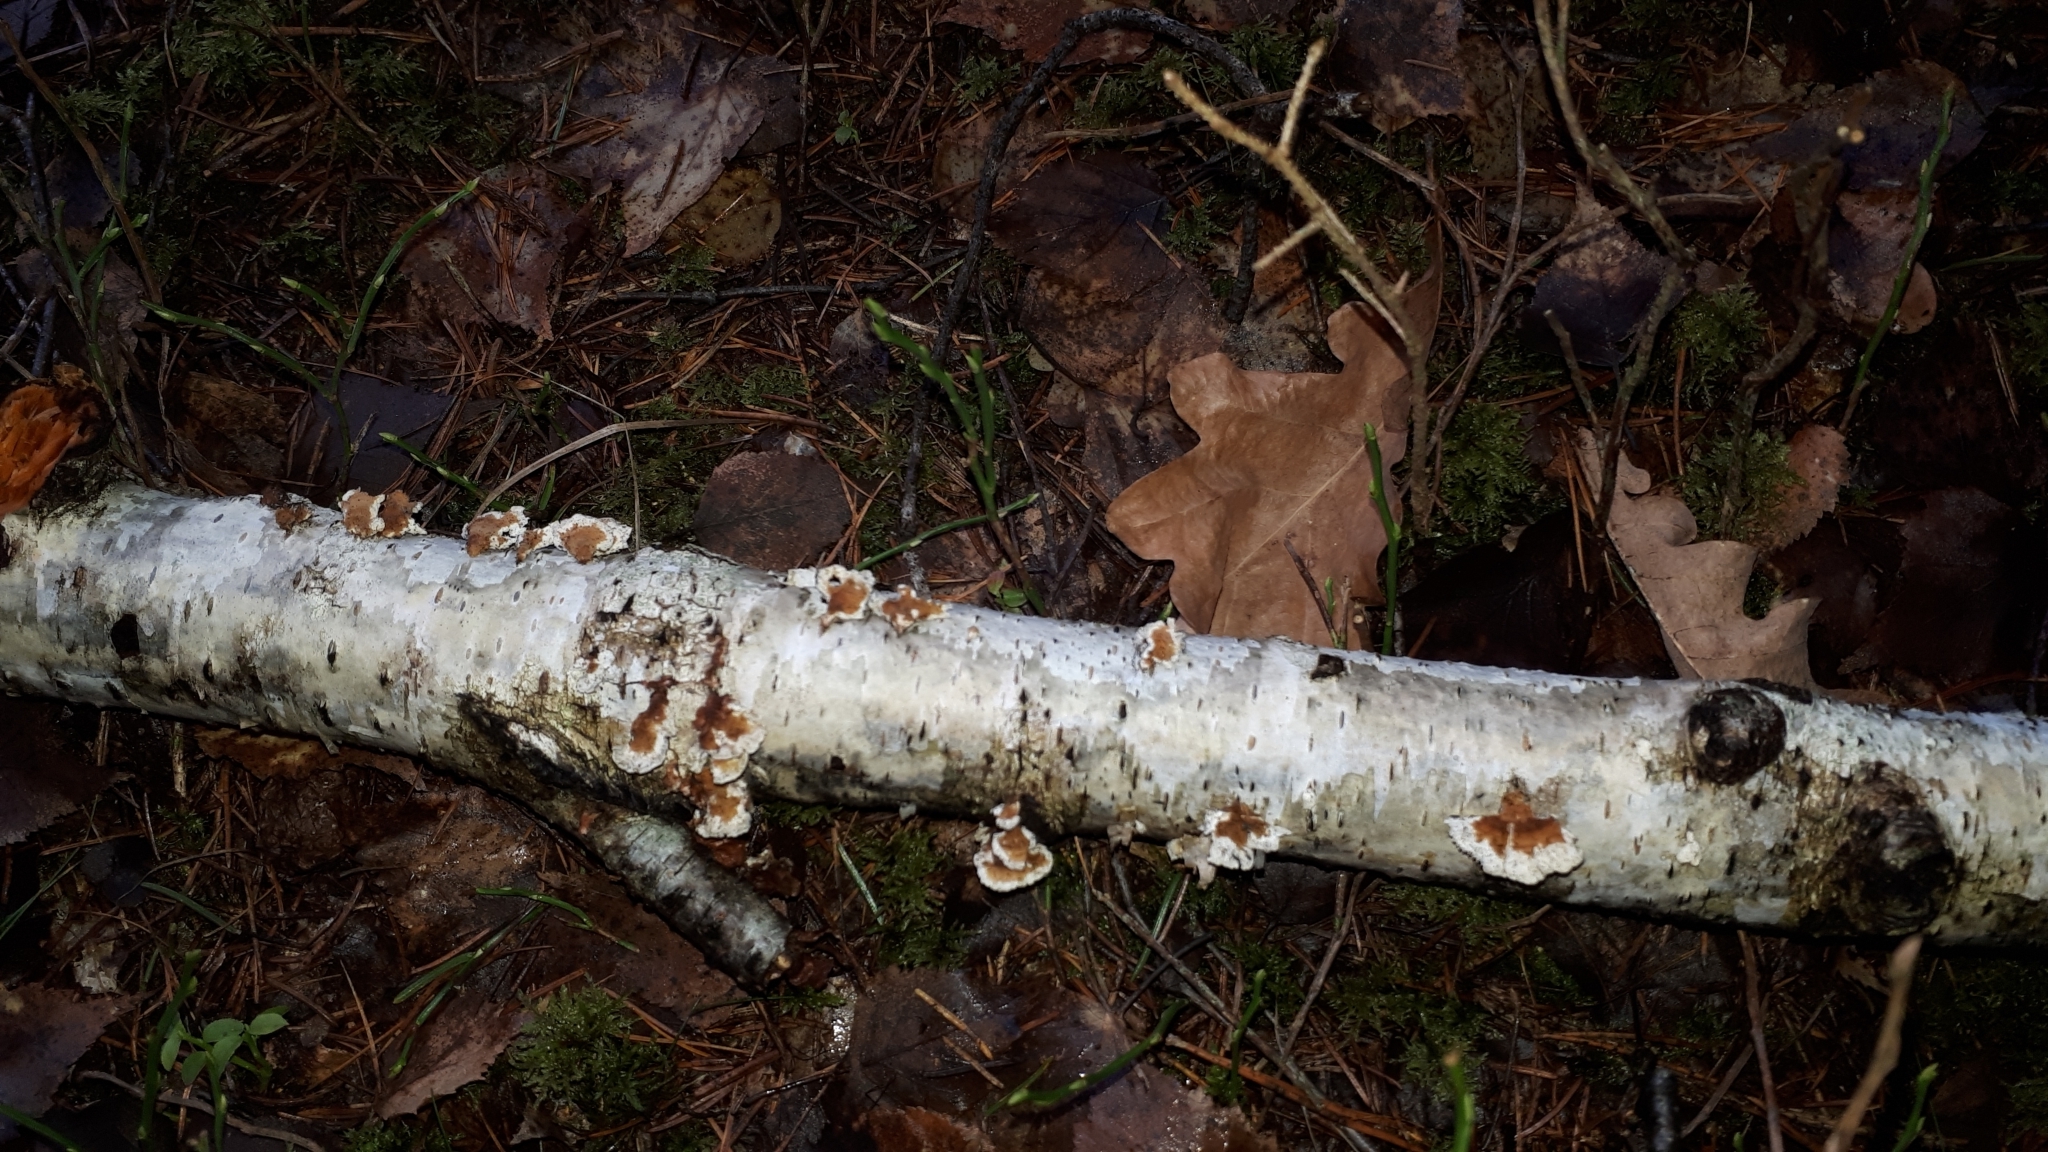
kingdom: Fungi
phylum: Basidiomycota
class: Agaricomycetes
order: Amylocorticiales
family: Amylocorticiaceae
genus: Plicaturopsis
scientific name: Plicaturopsis crispa
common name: Crimped gill
